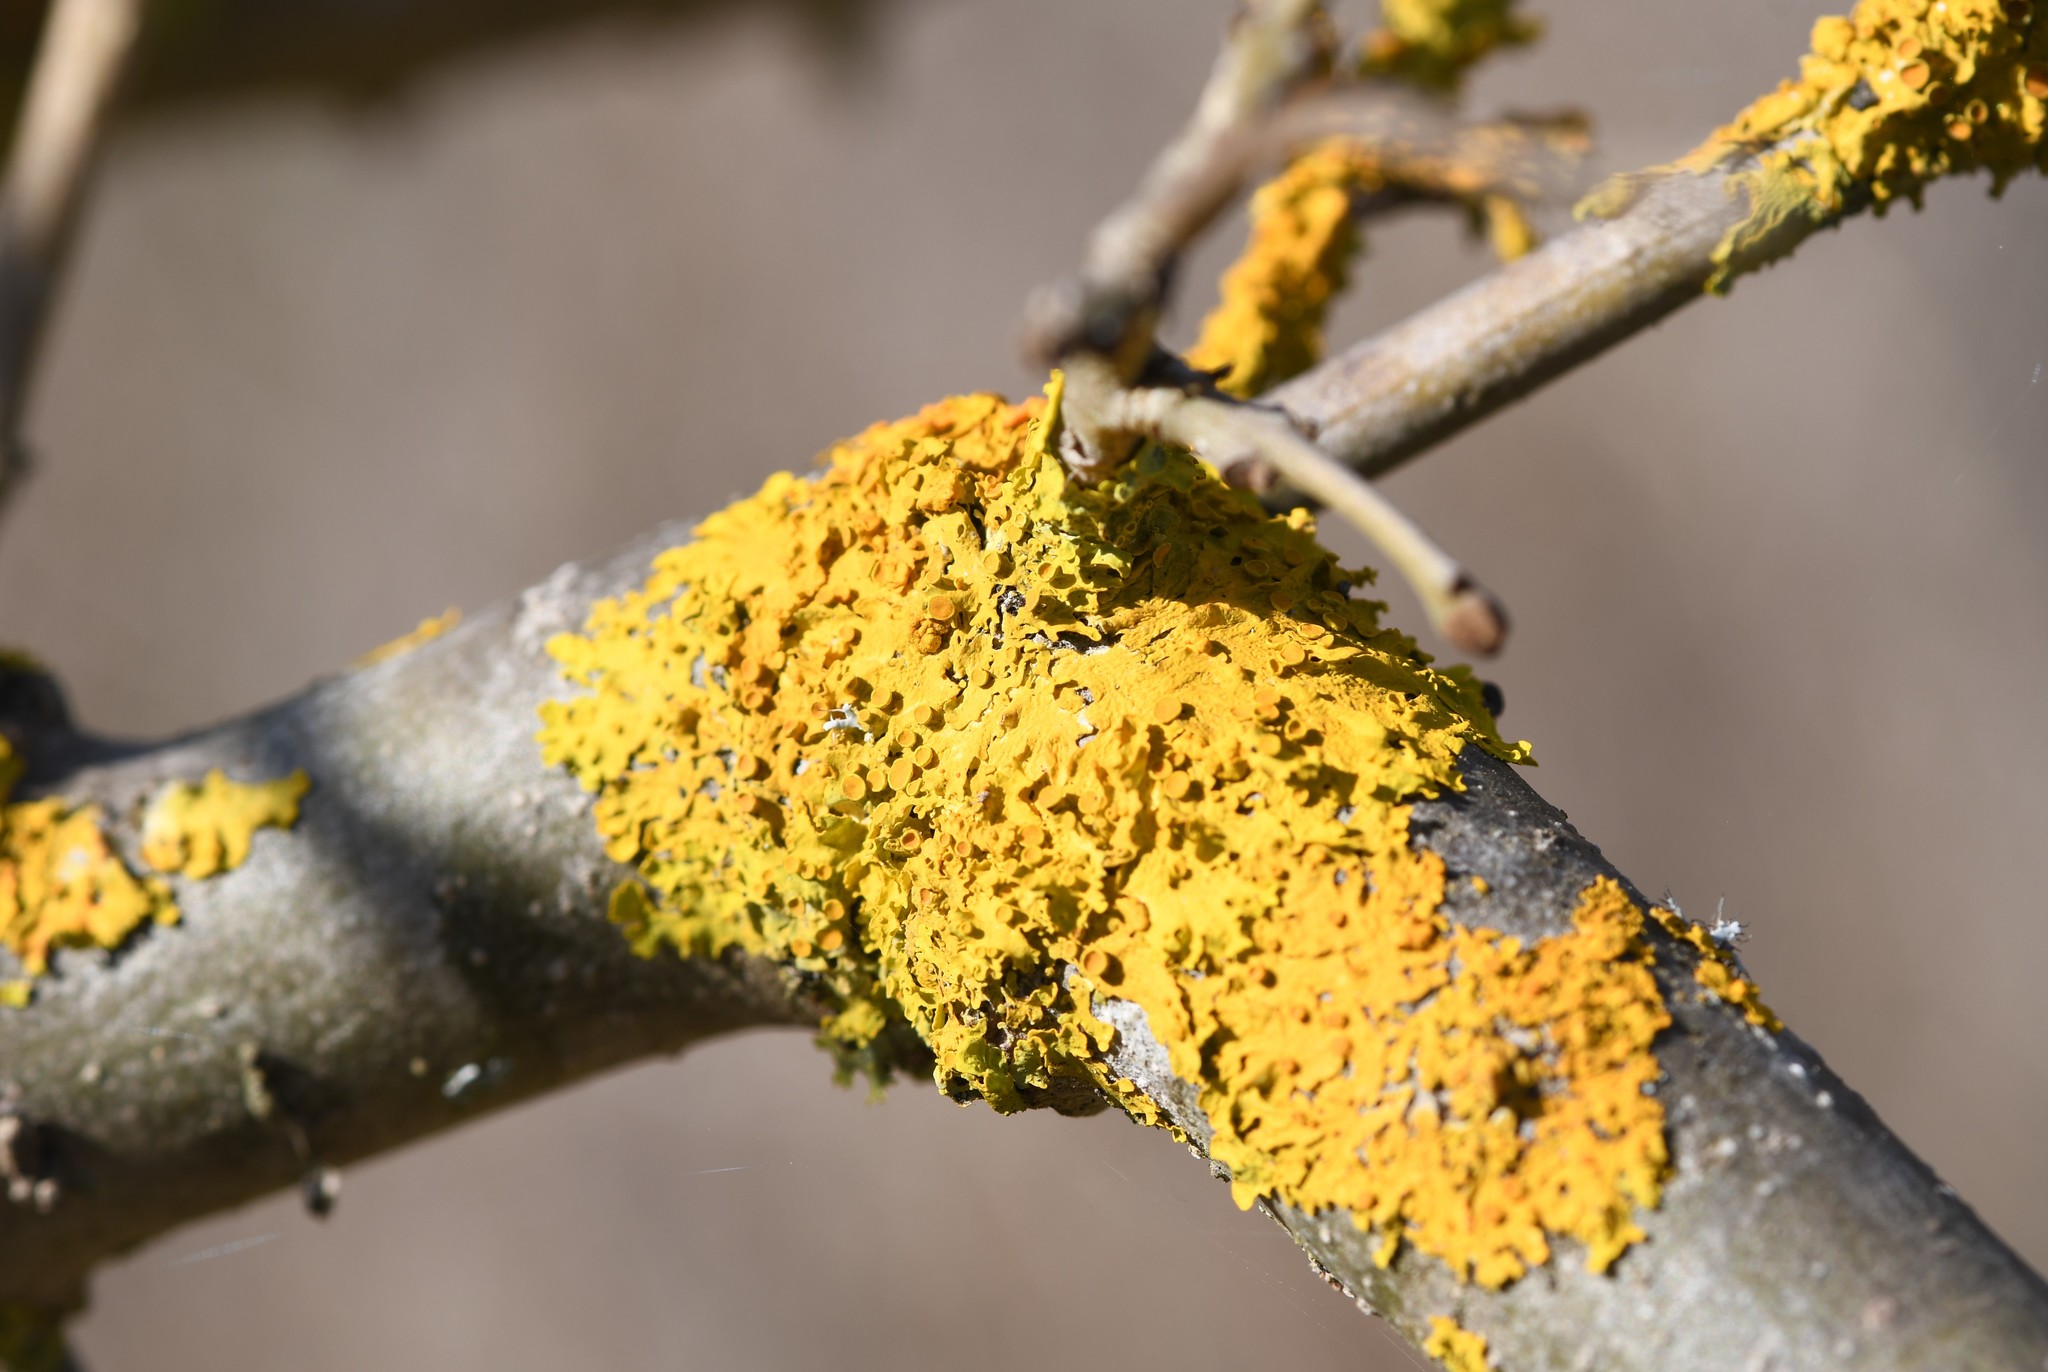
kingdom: Fungi
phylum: Ascomycota
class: Lecanoromycetes
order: Teloschistales
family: Teloschistaceae
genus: Xanthoria
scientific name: Xanthoria parietina
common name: Common orange lichen
